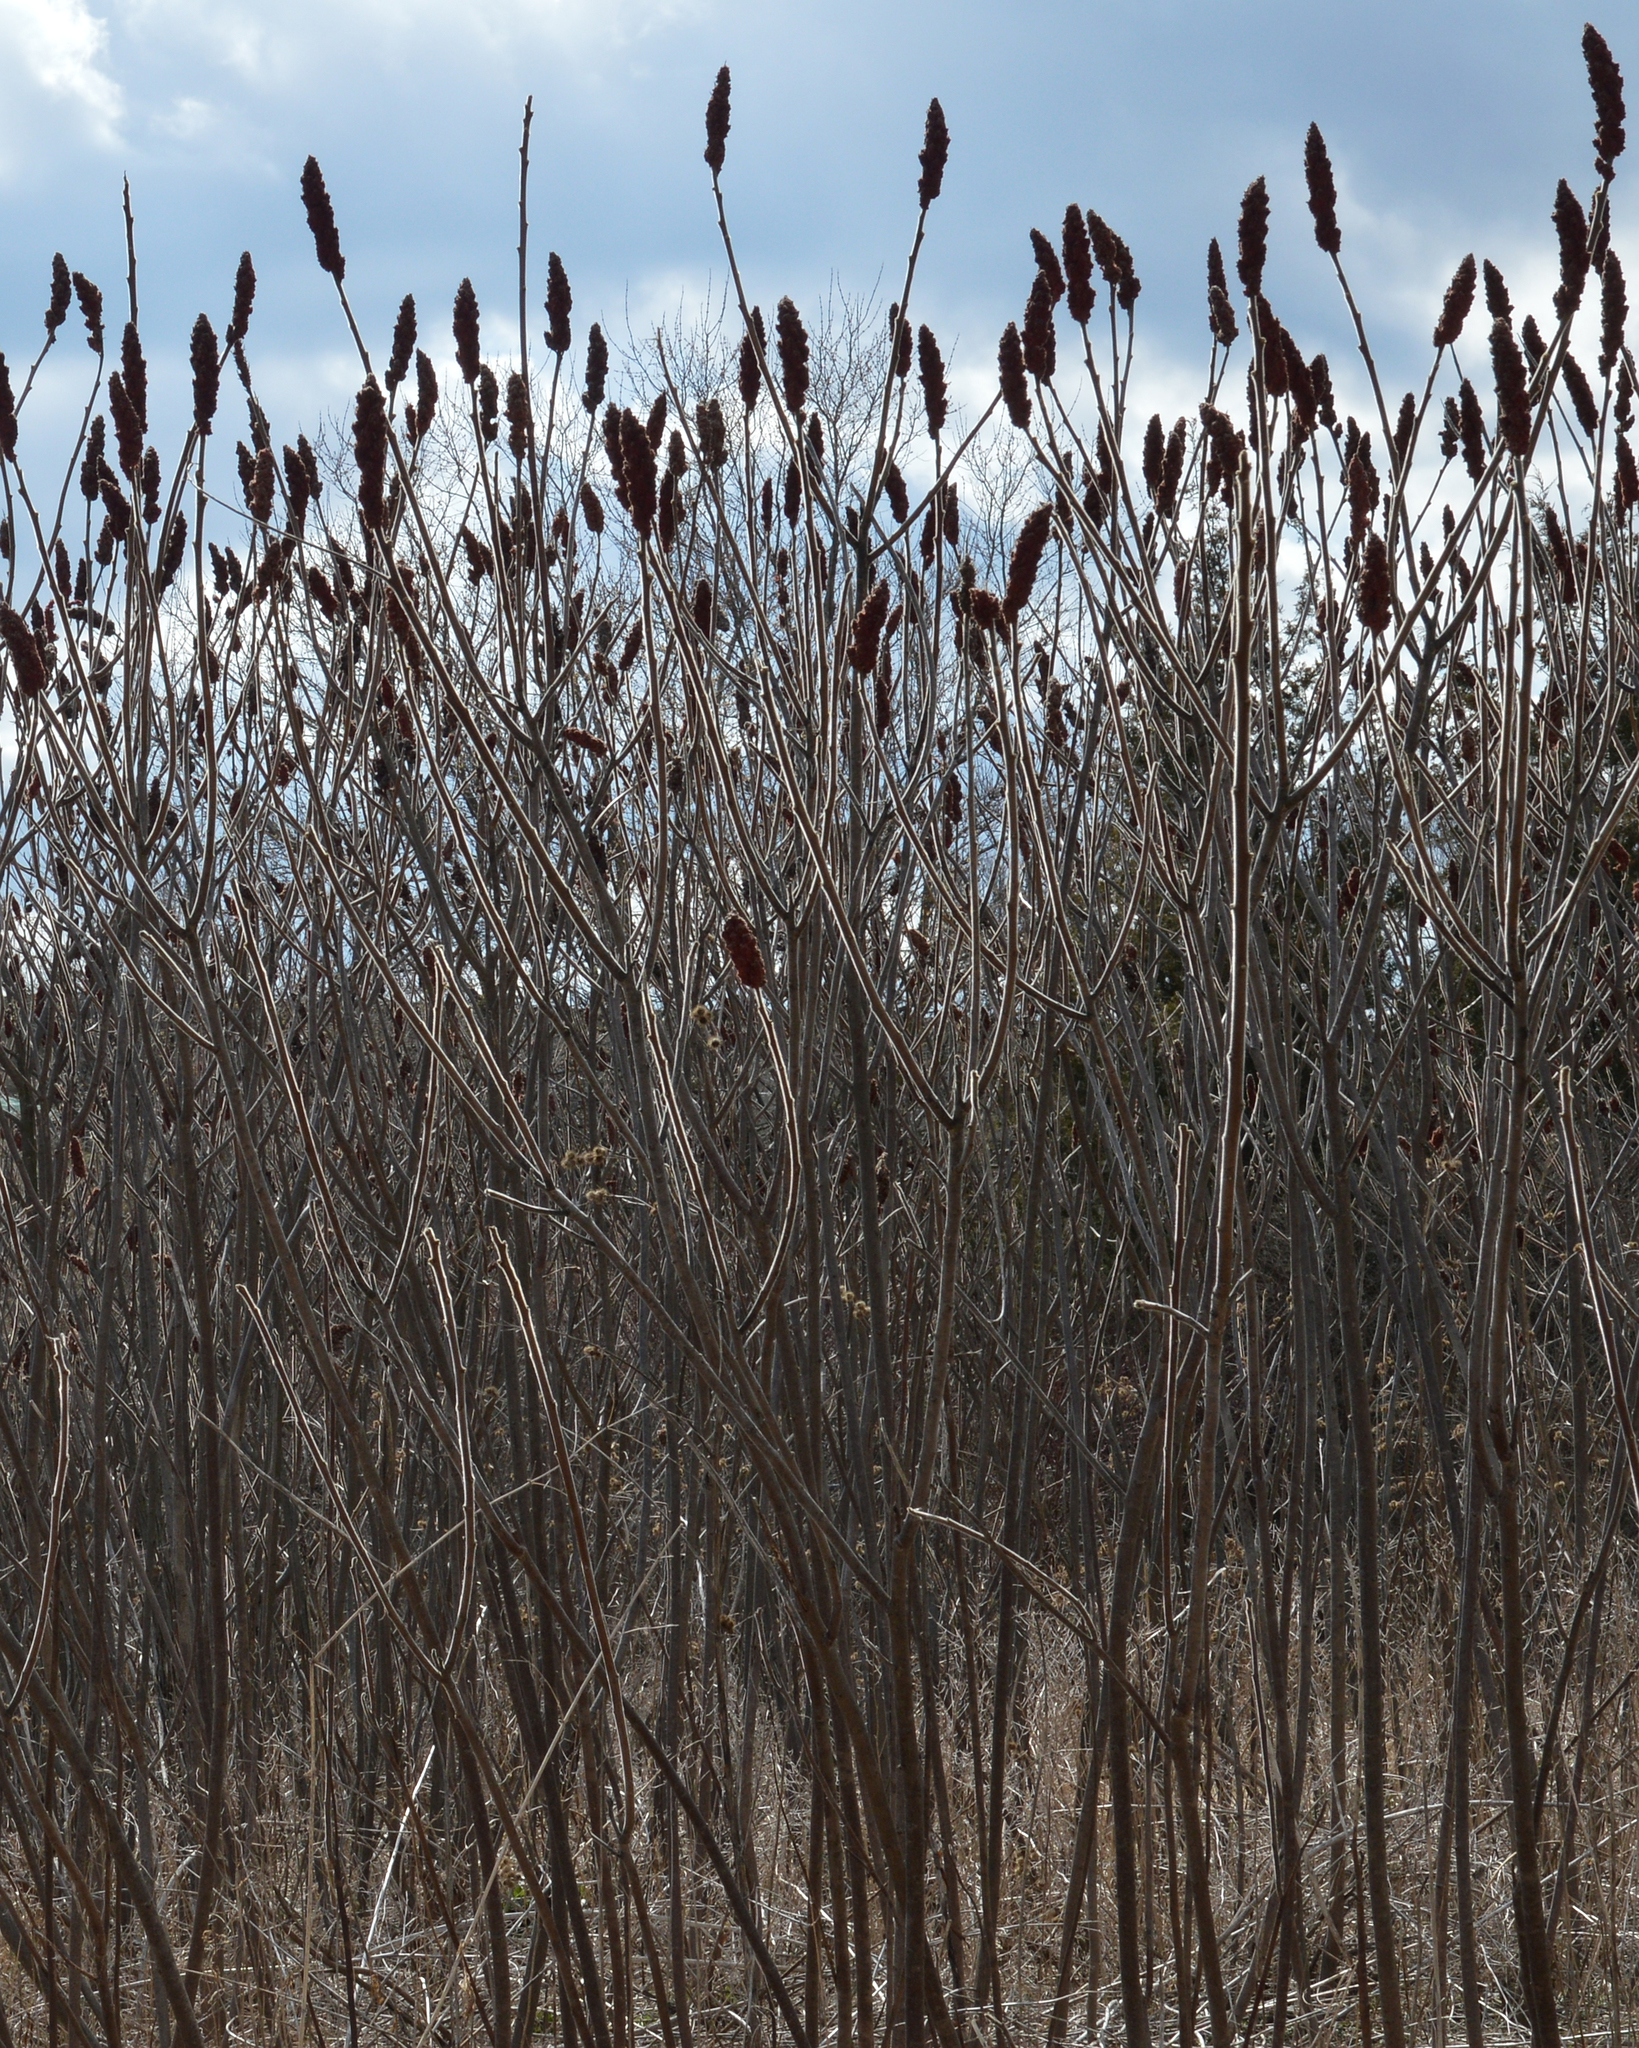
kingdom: Plantae
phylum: Tracheophyta
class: Magnoliopsida
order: Sapindales
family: Anacardiaceae
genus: Rhus
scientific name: Rhus typhina
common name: Staghorn sumac
